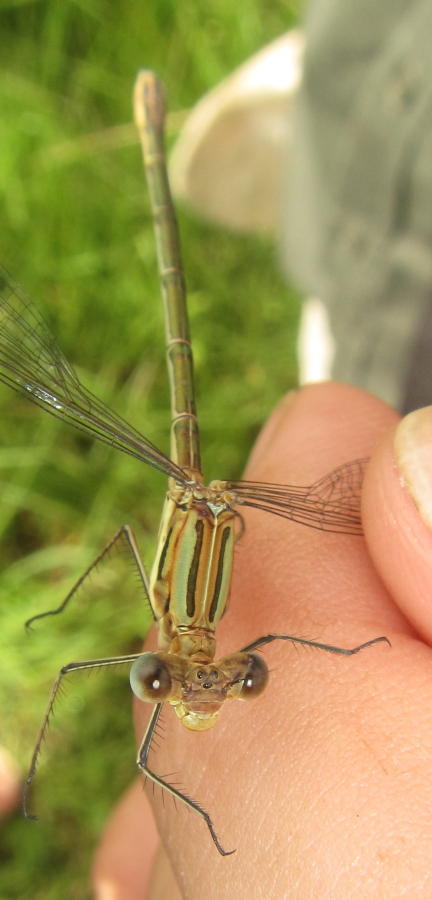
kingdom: Animalia
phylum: Arthropoda
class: Insecta
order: Odonata
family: Lestidae
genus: Lestes
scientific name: Lestes plagiatus
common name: Highland spreadwing
